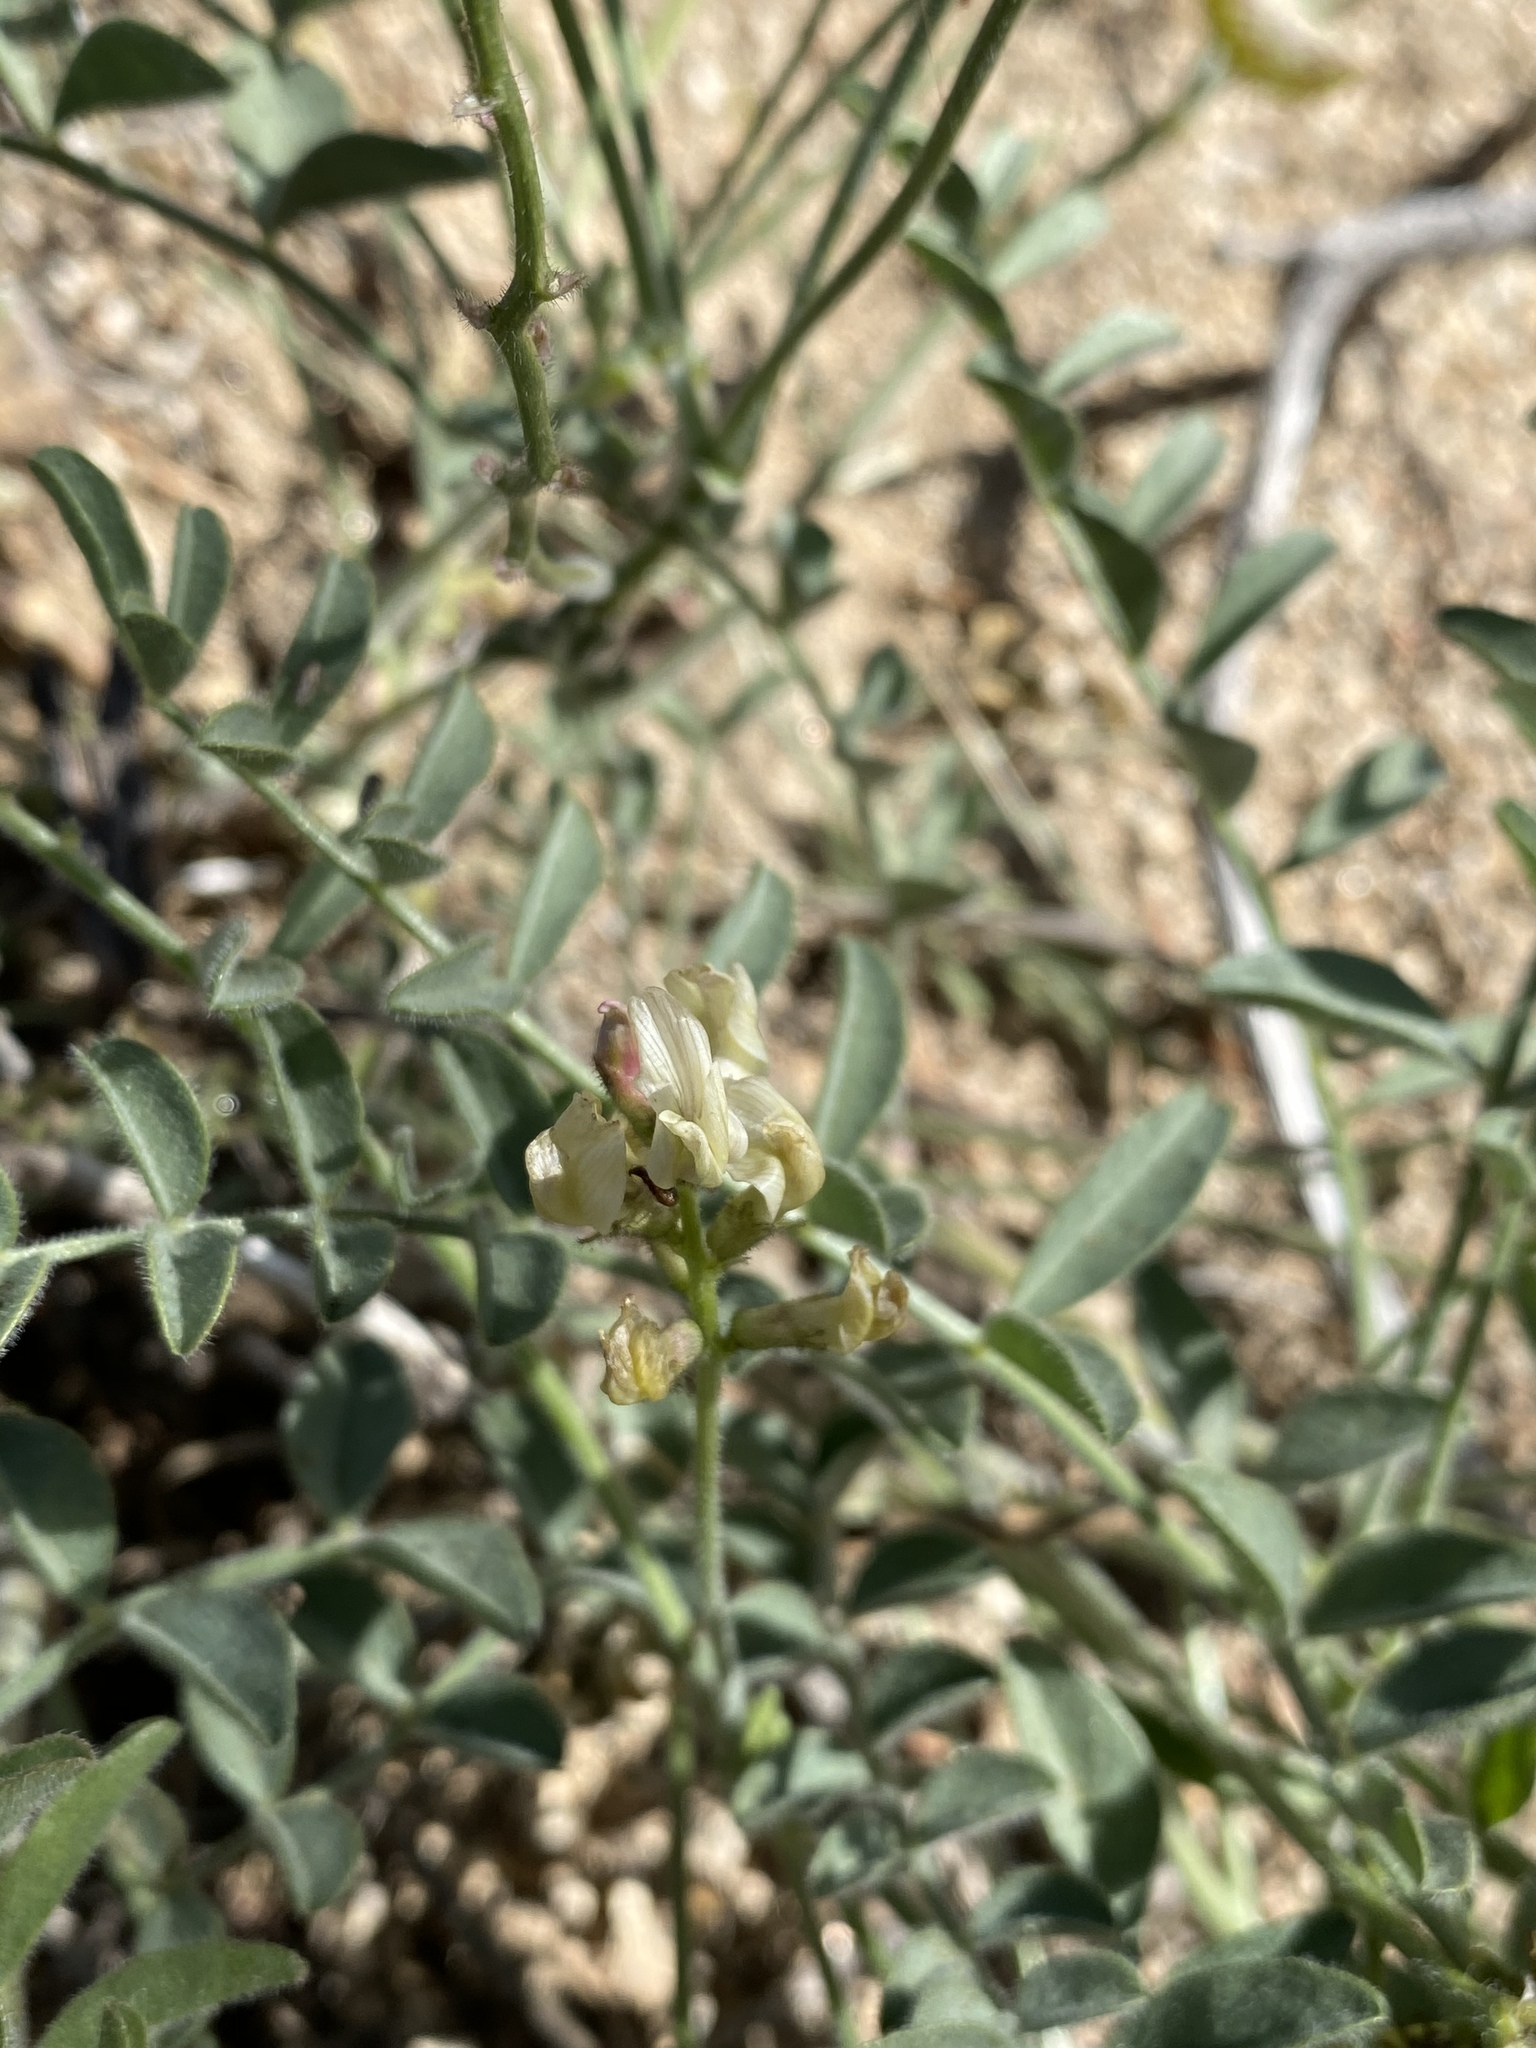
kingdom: Plantae
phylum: Tracheophyta
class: Magnoliopsida
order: Fabales
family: Fabaceae
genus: Astragalus
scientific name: Astragalus ertterae
